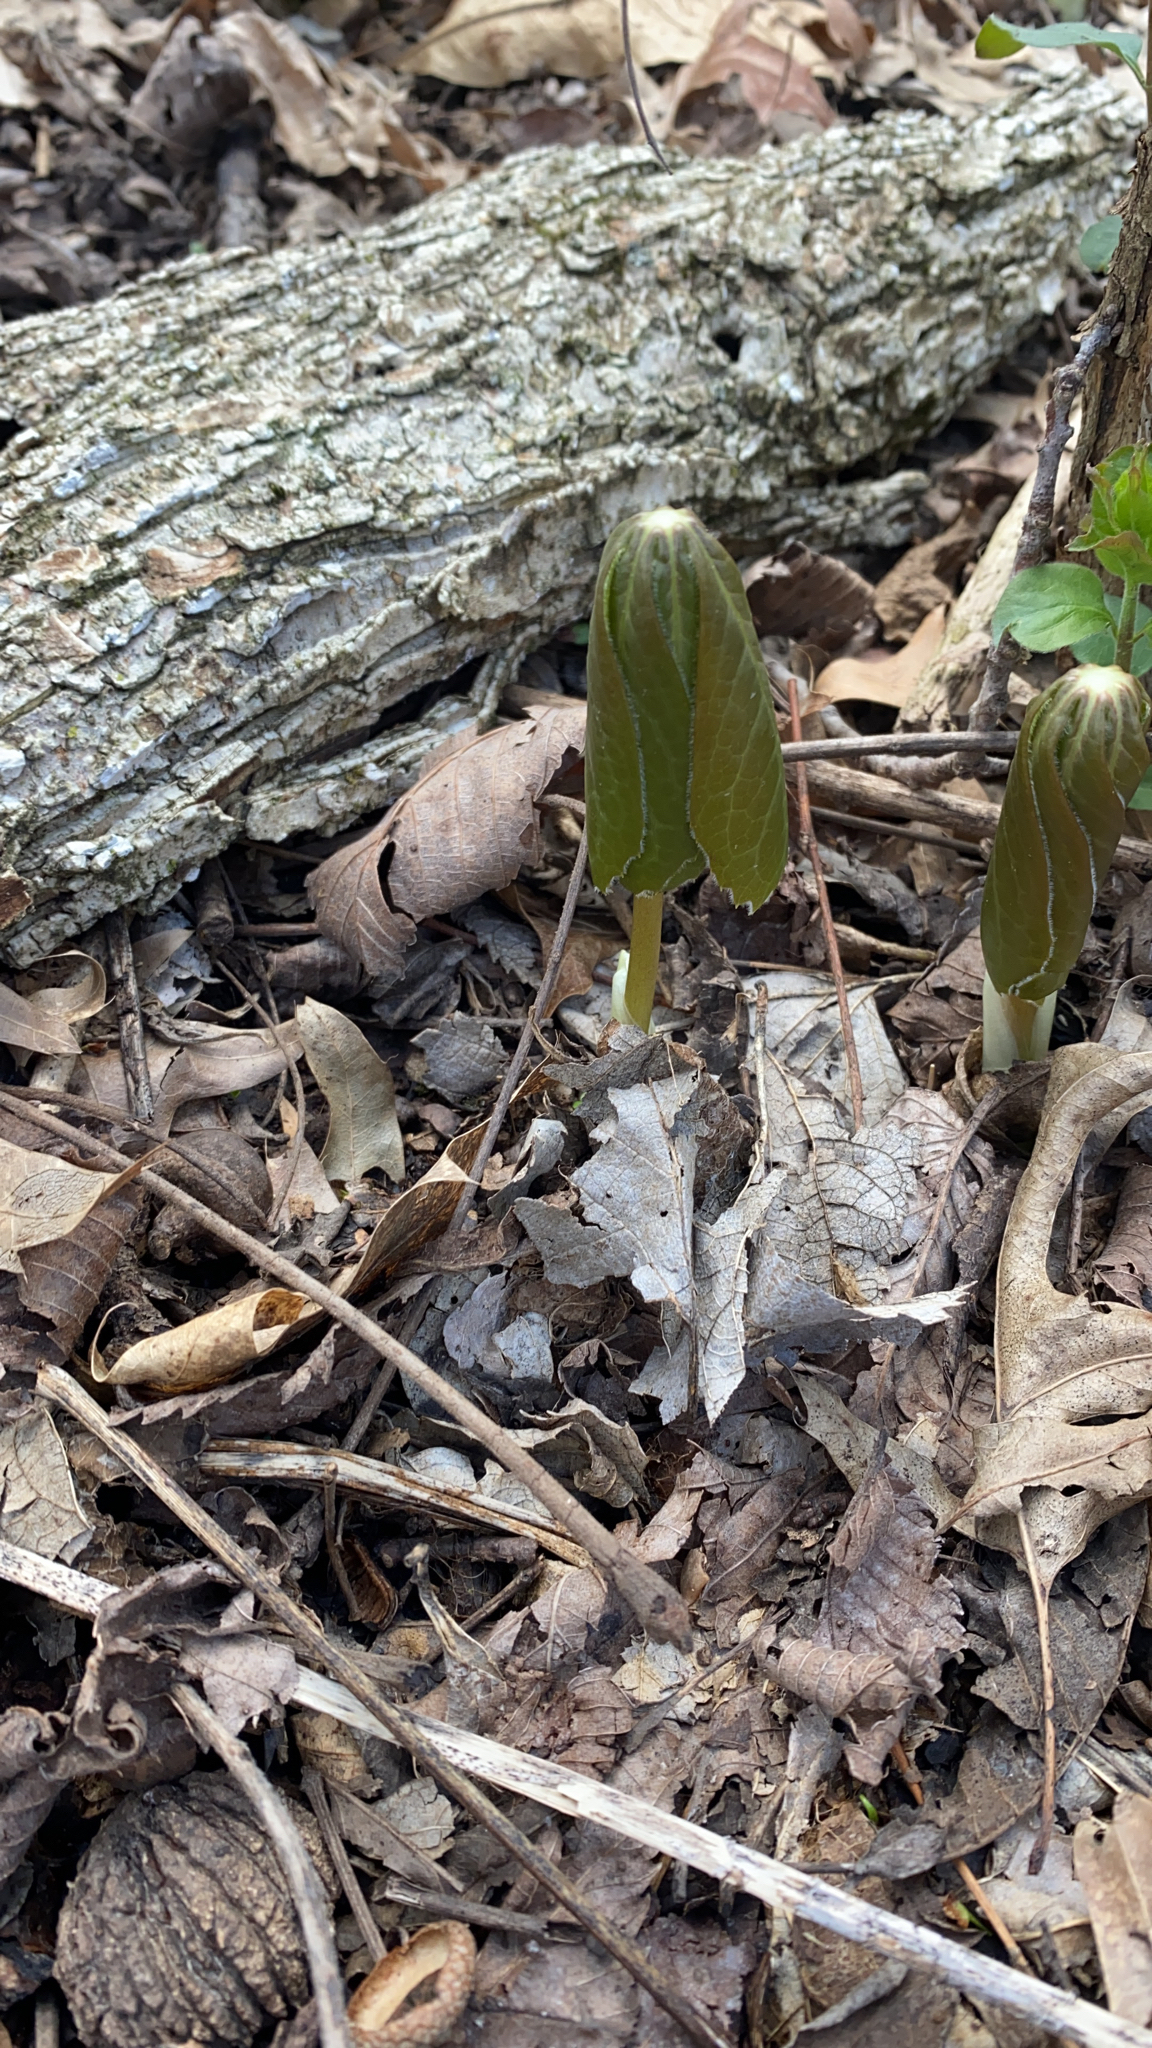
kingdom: Plantae
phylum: Tracheophyta
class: Magnoliopsida
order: Ranunculales
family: Berberidaceae
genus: Podophyllum
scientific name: Podophyllum peltatum
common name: Wild mandrake
